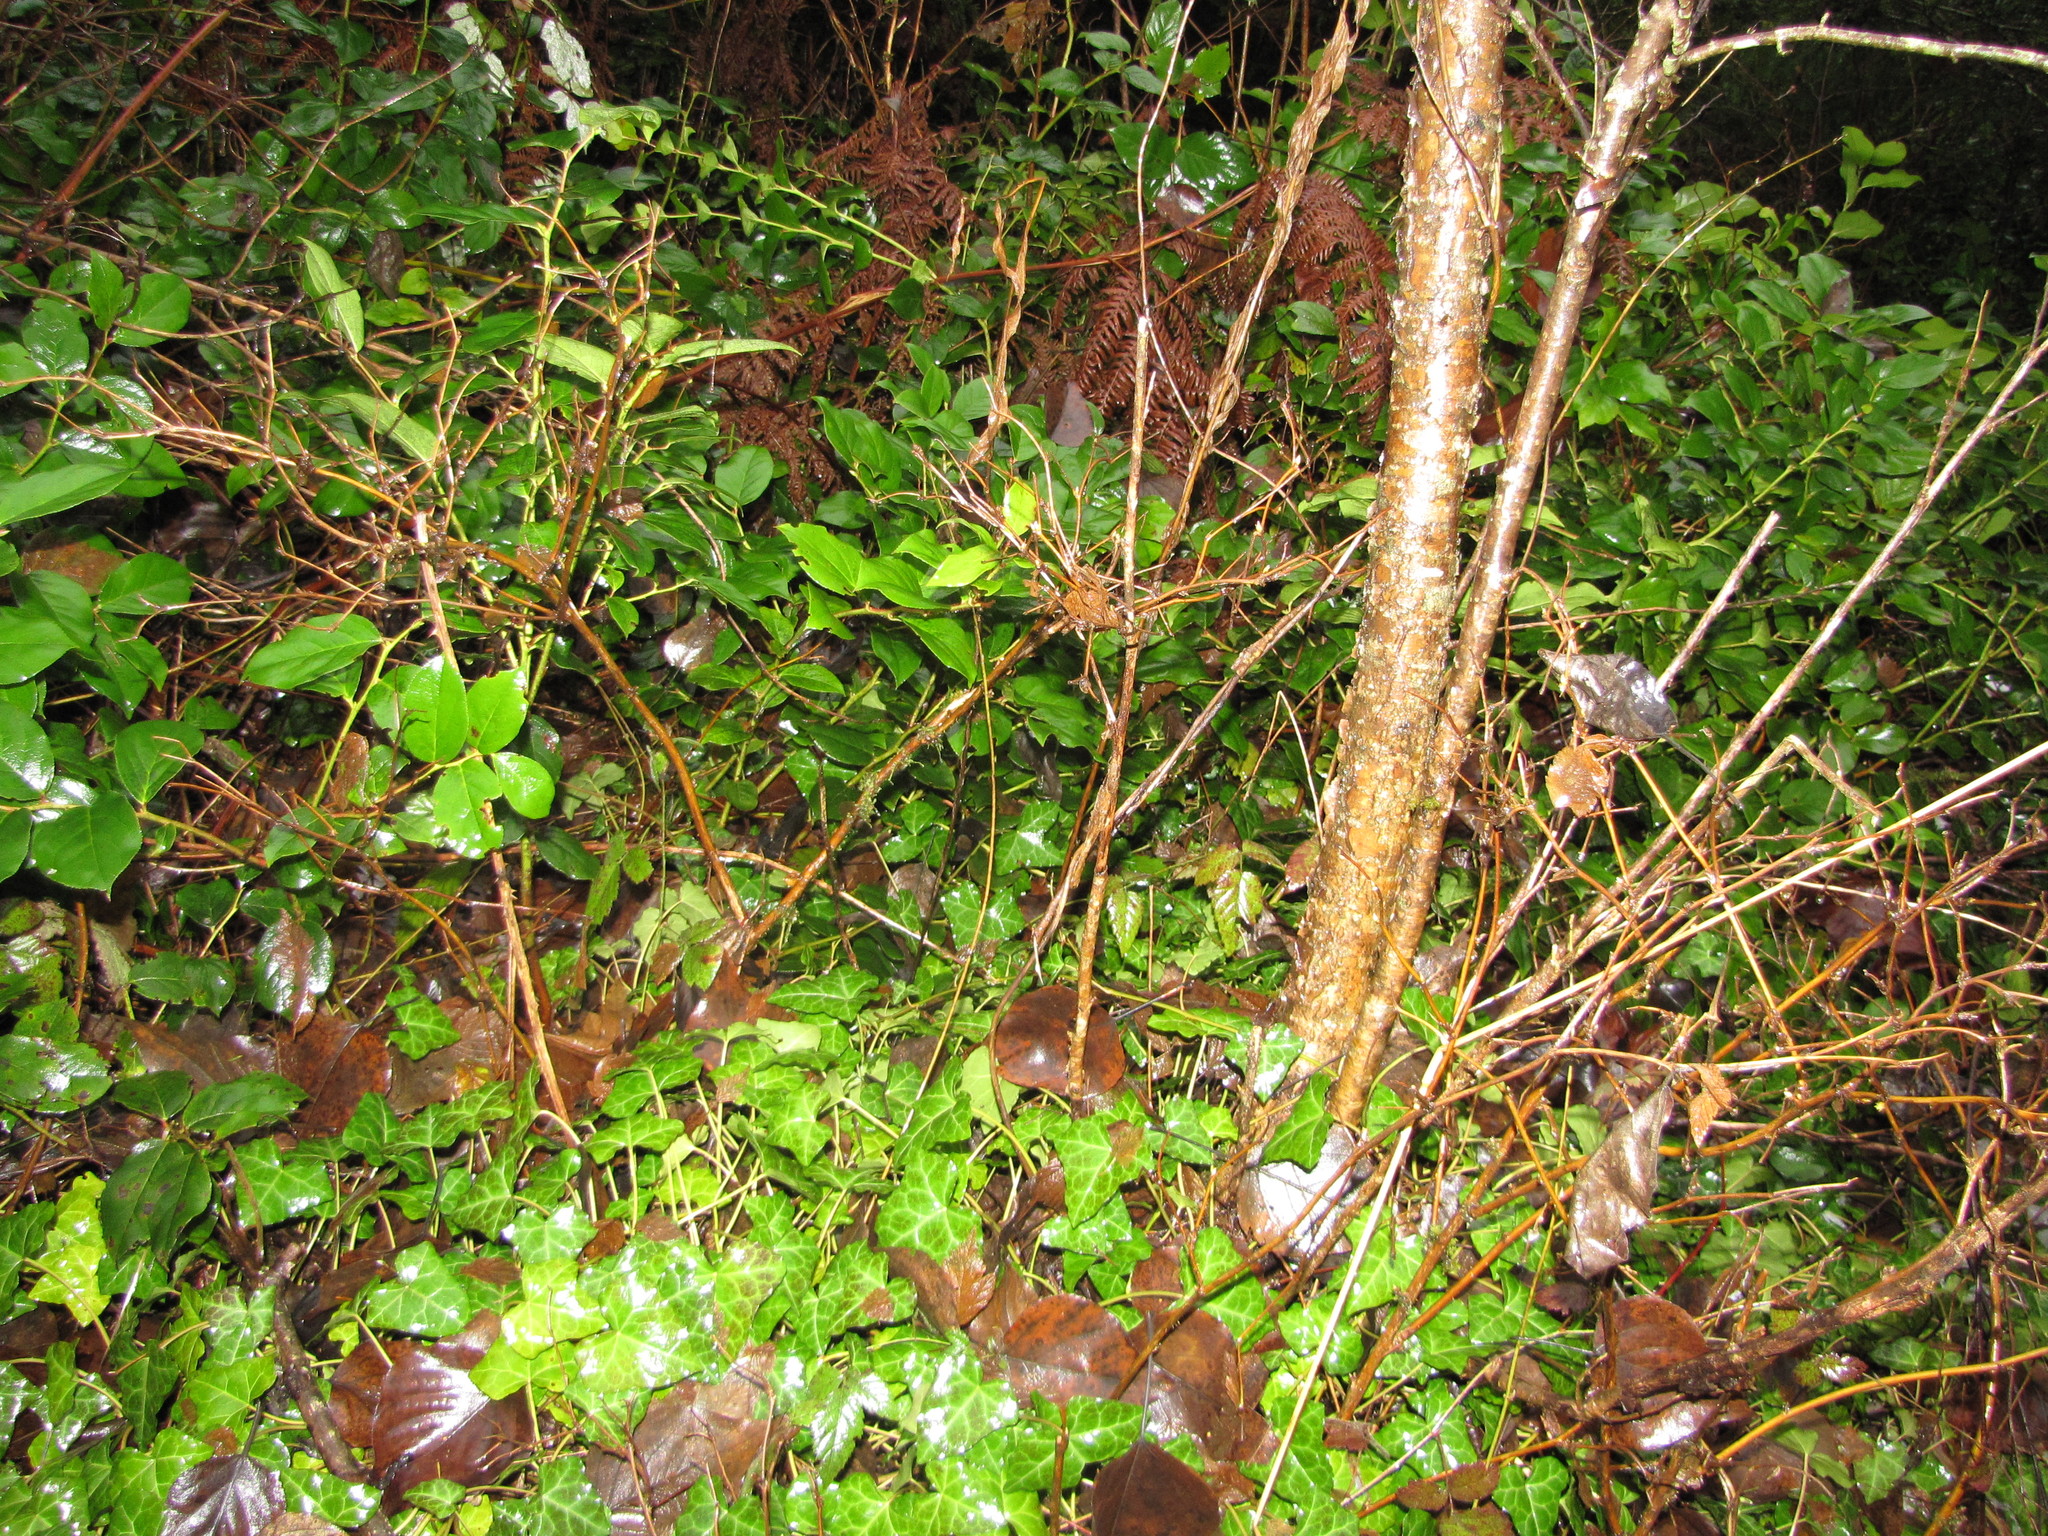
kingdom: Plantae
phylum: Tracheophyta
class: Magnoliopsida
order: Apiales
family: Araliaceae
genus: Hedera
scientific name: Hedera helix
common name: Ivy
